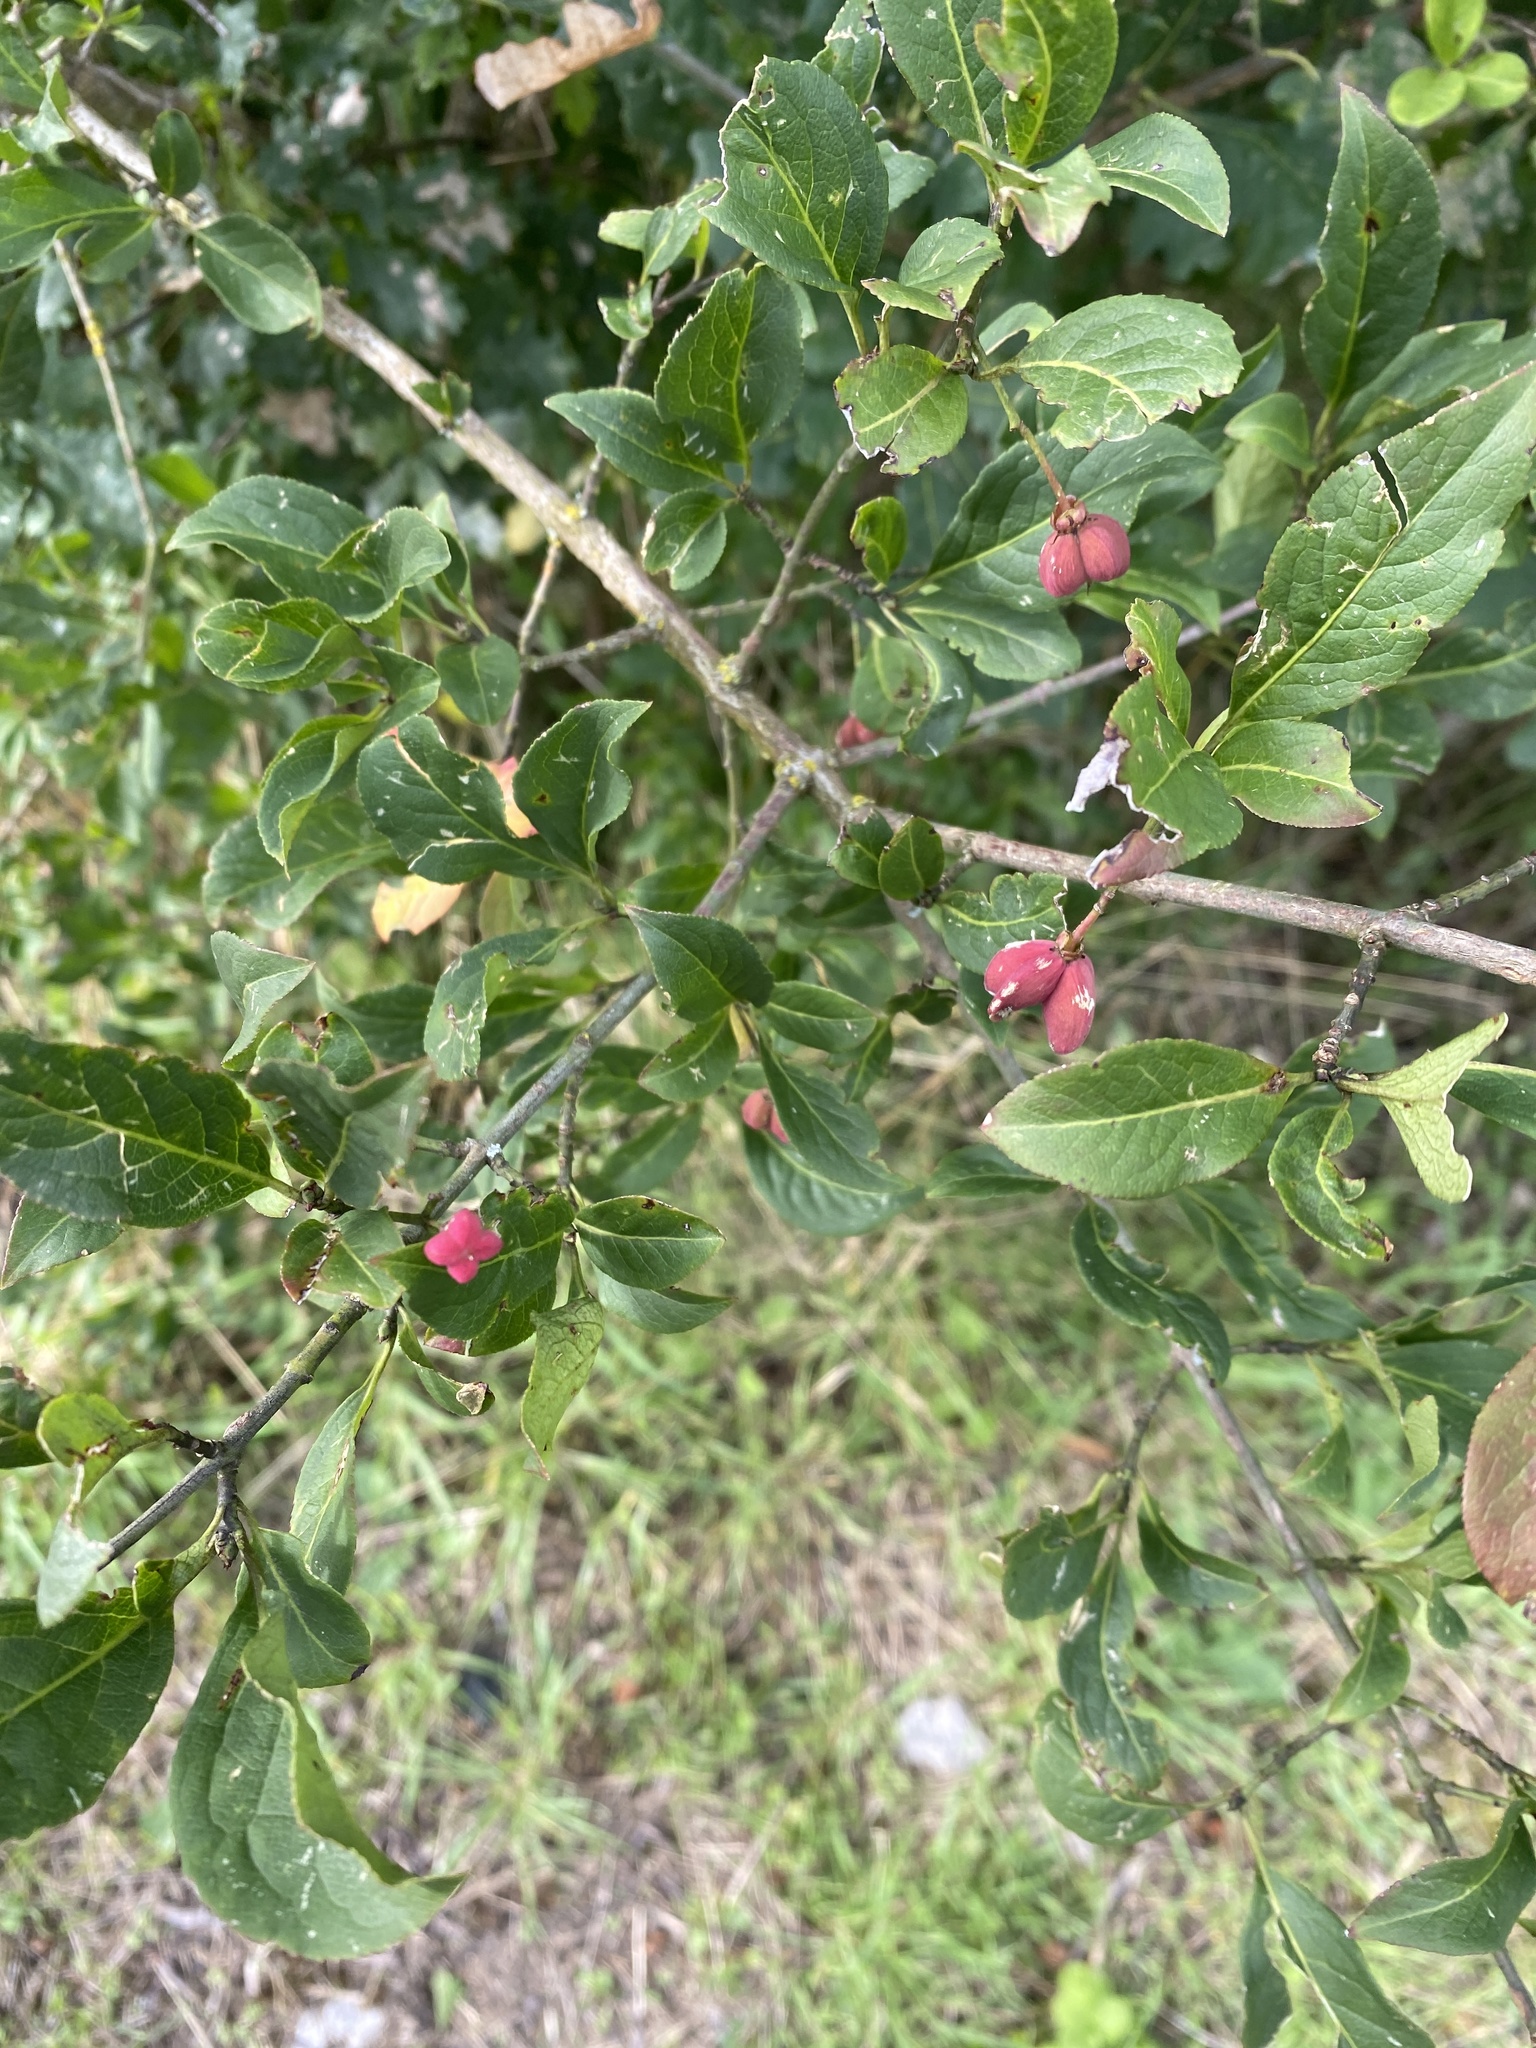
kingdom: Plantae
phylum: Tracheophyta
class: Magnoliopsida
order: Celastrales
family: Celastraceae
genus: Euonymus
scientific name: Euonymus europaeus
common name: Spindle
